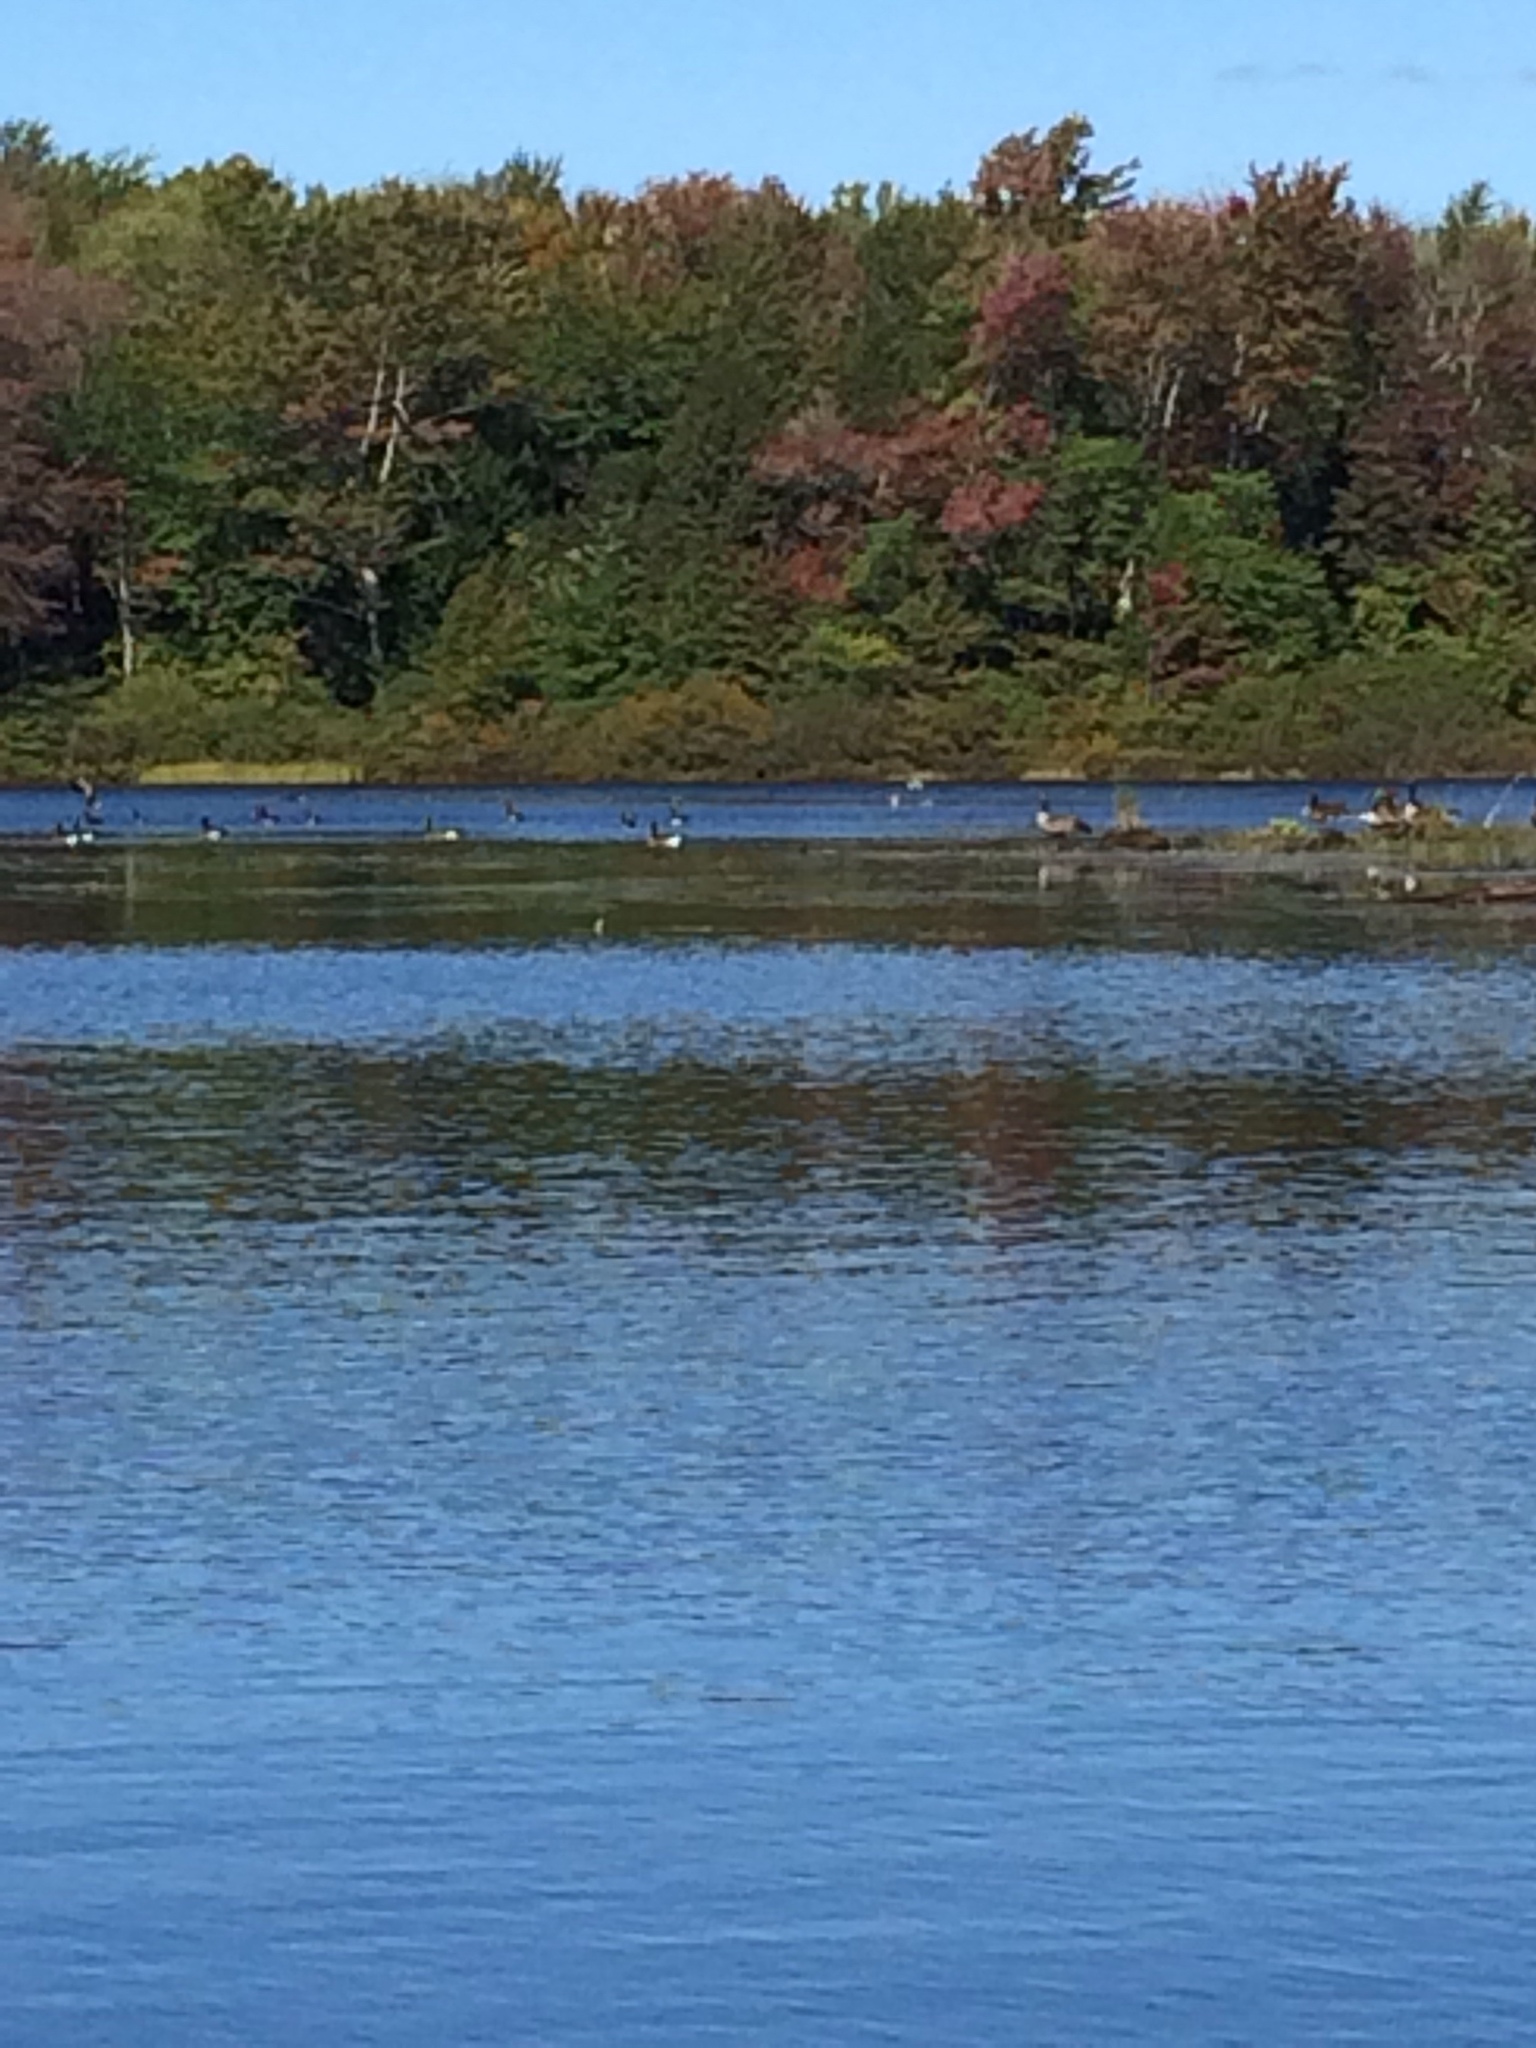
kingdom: Animalia
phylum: Chordata
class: Aves
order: Anseriformes
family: Anatidae
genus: Branta
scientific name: Branta canadensis
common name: Canada goose
